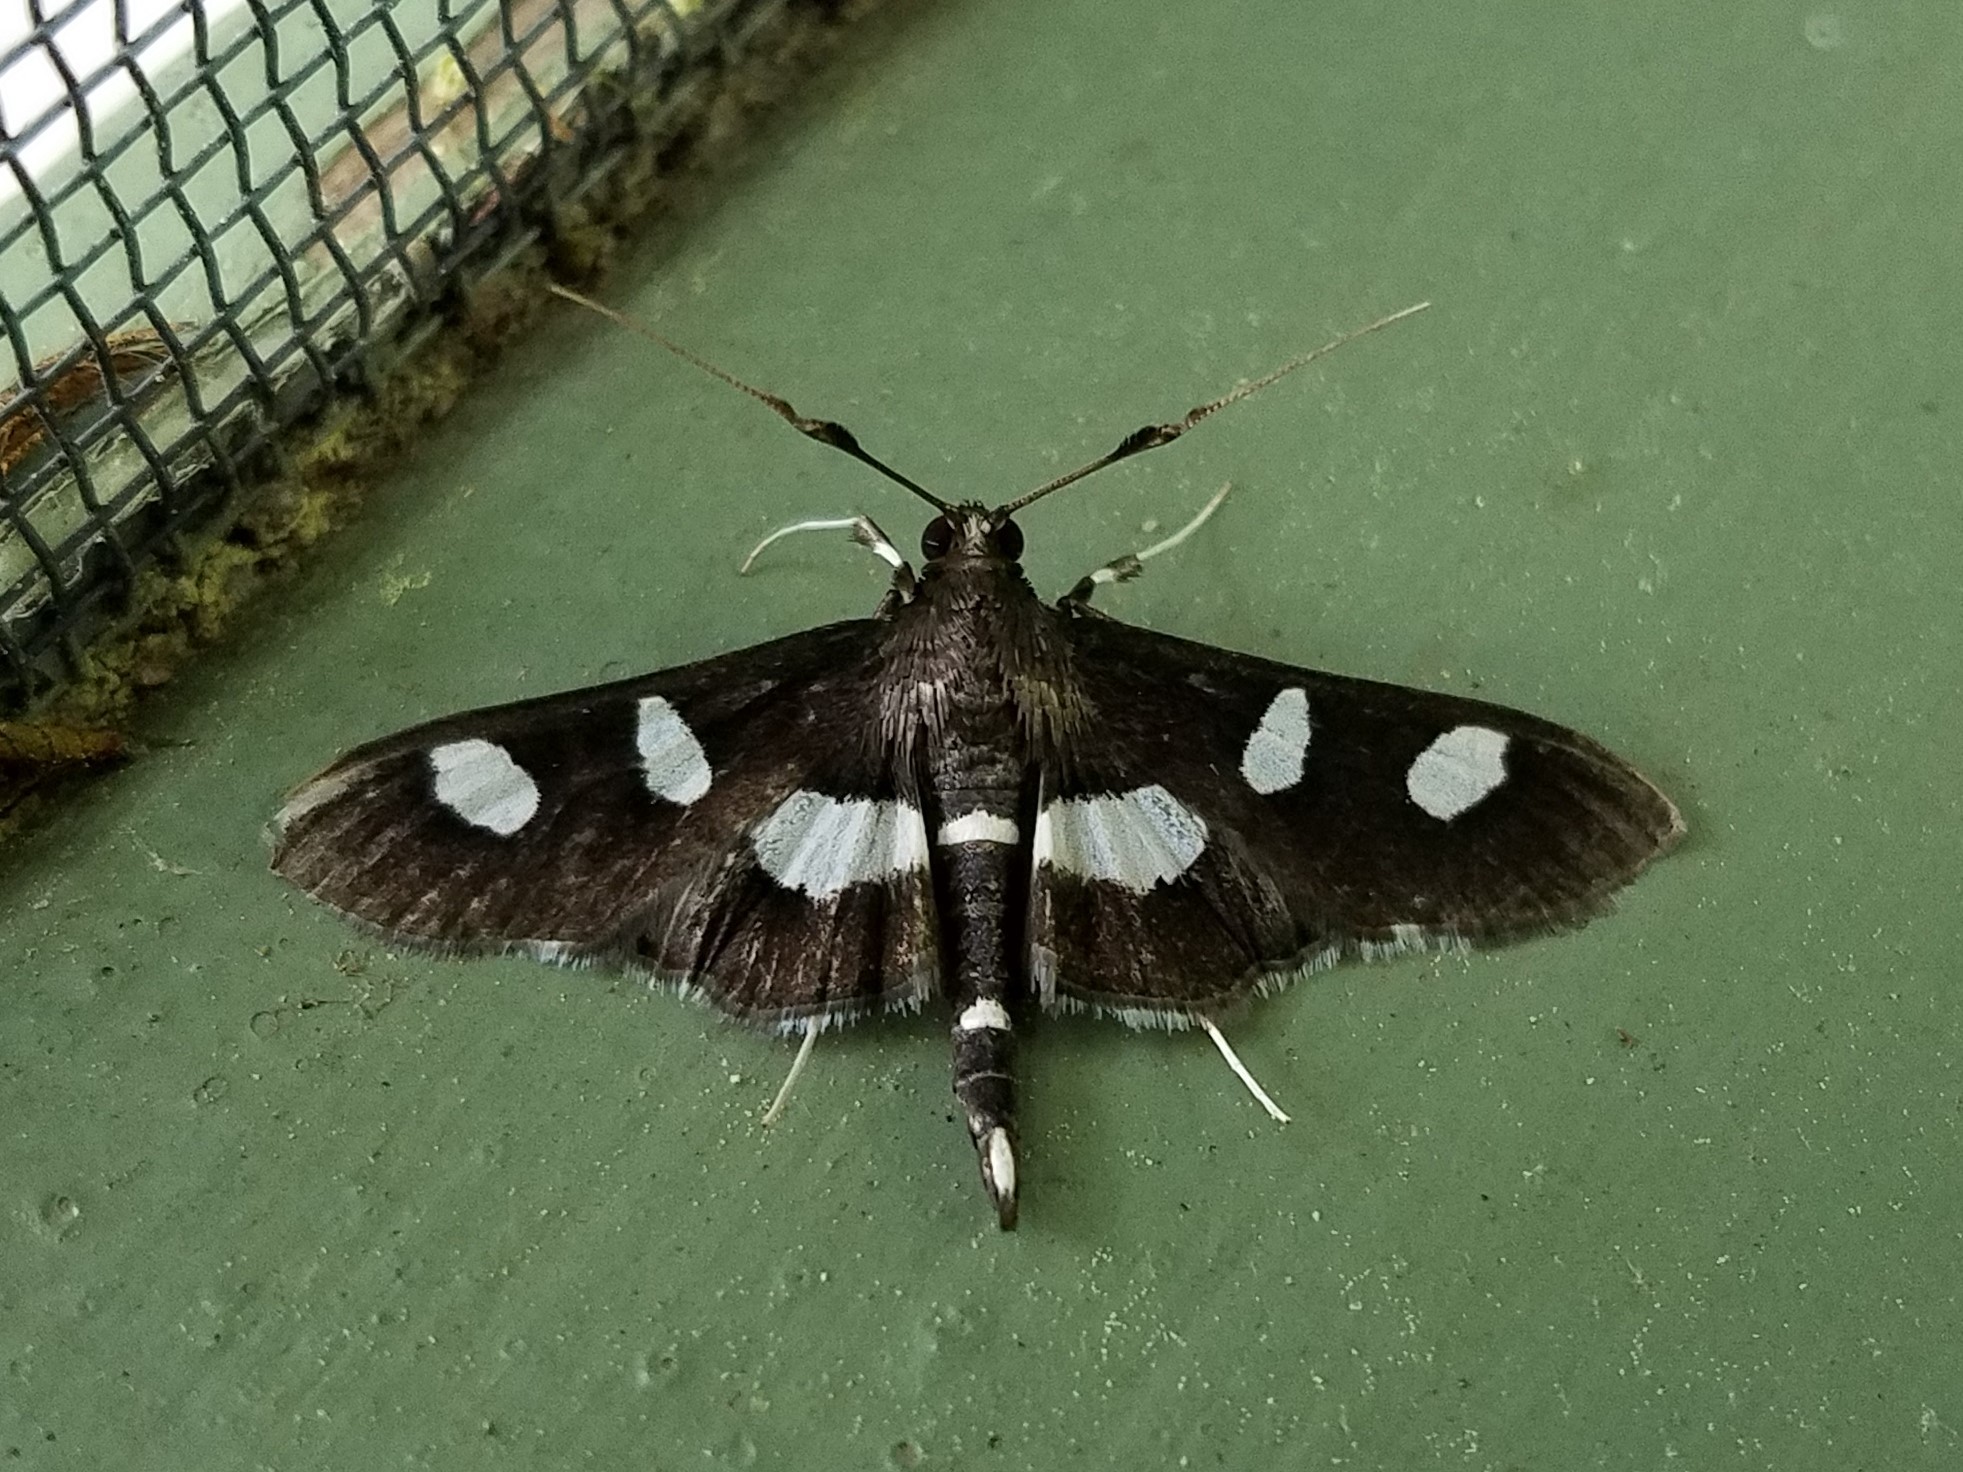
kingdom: Animalia
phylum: Arthropoda
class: Insecta
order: Lepidoptera
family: Crambidae
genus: Desmia
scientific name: Desmia
